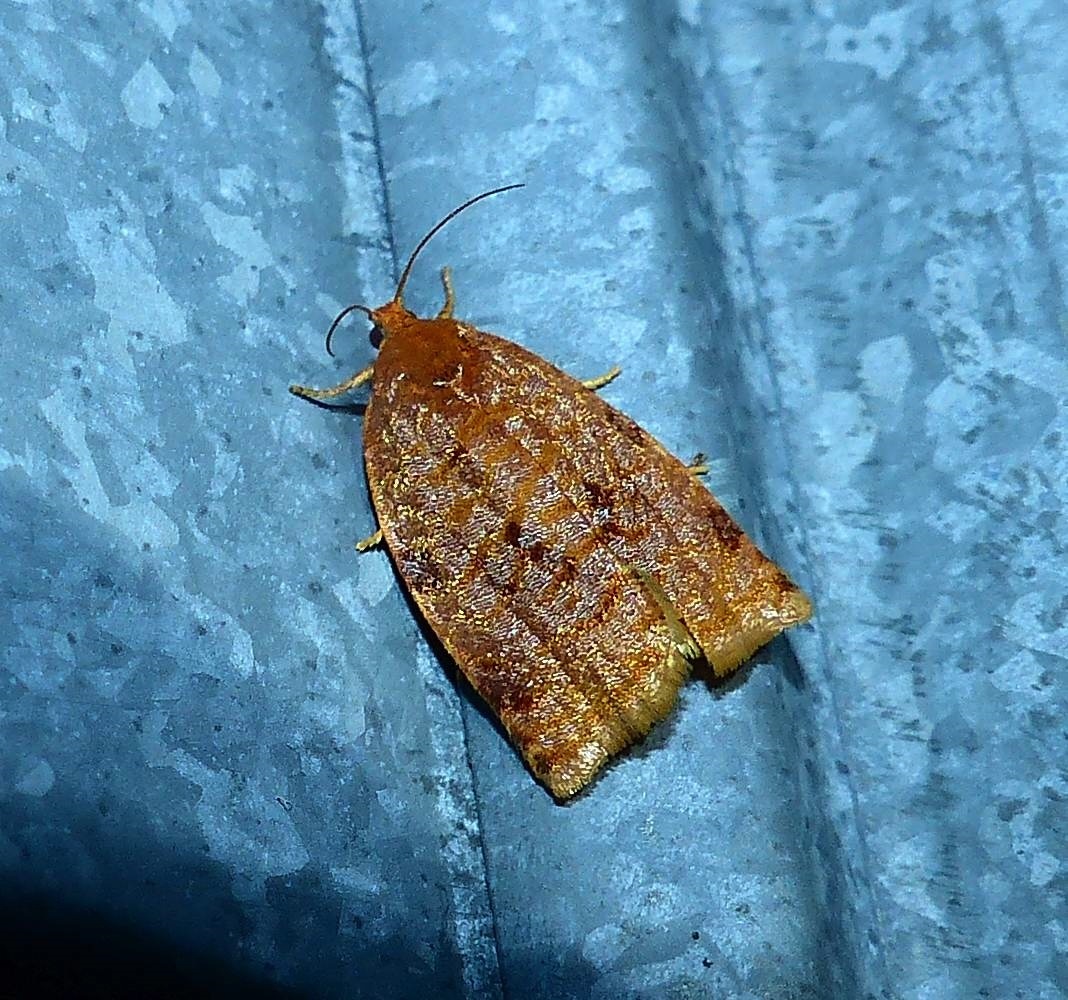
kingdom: Animalia
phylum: Arthropoda
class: Insecta
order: Lepidoptera
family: Tortricidae
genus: Archips
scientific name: Archips cerasivorana
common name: Uglynest caterpillar
